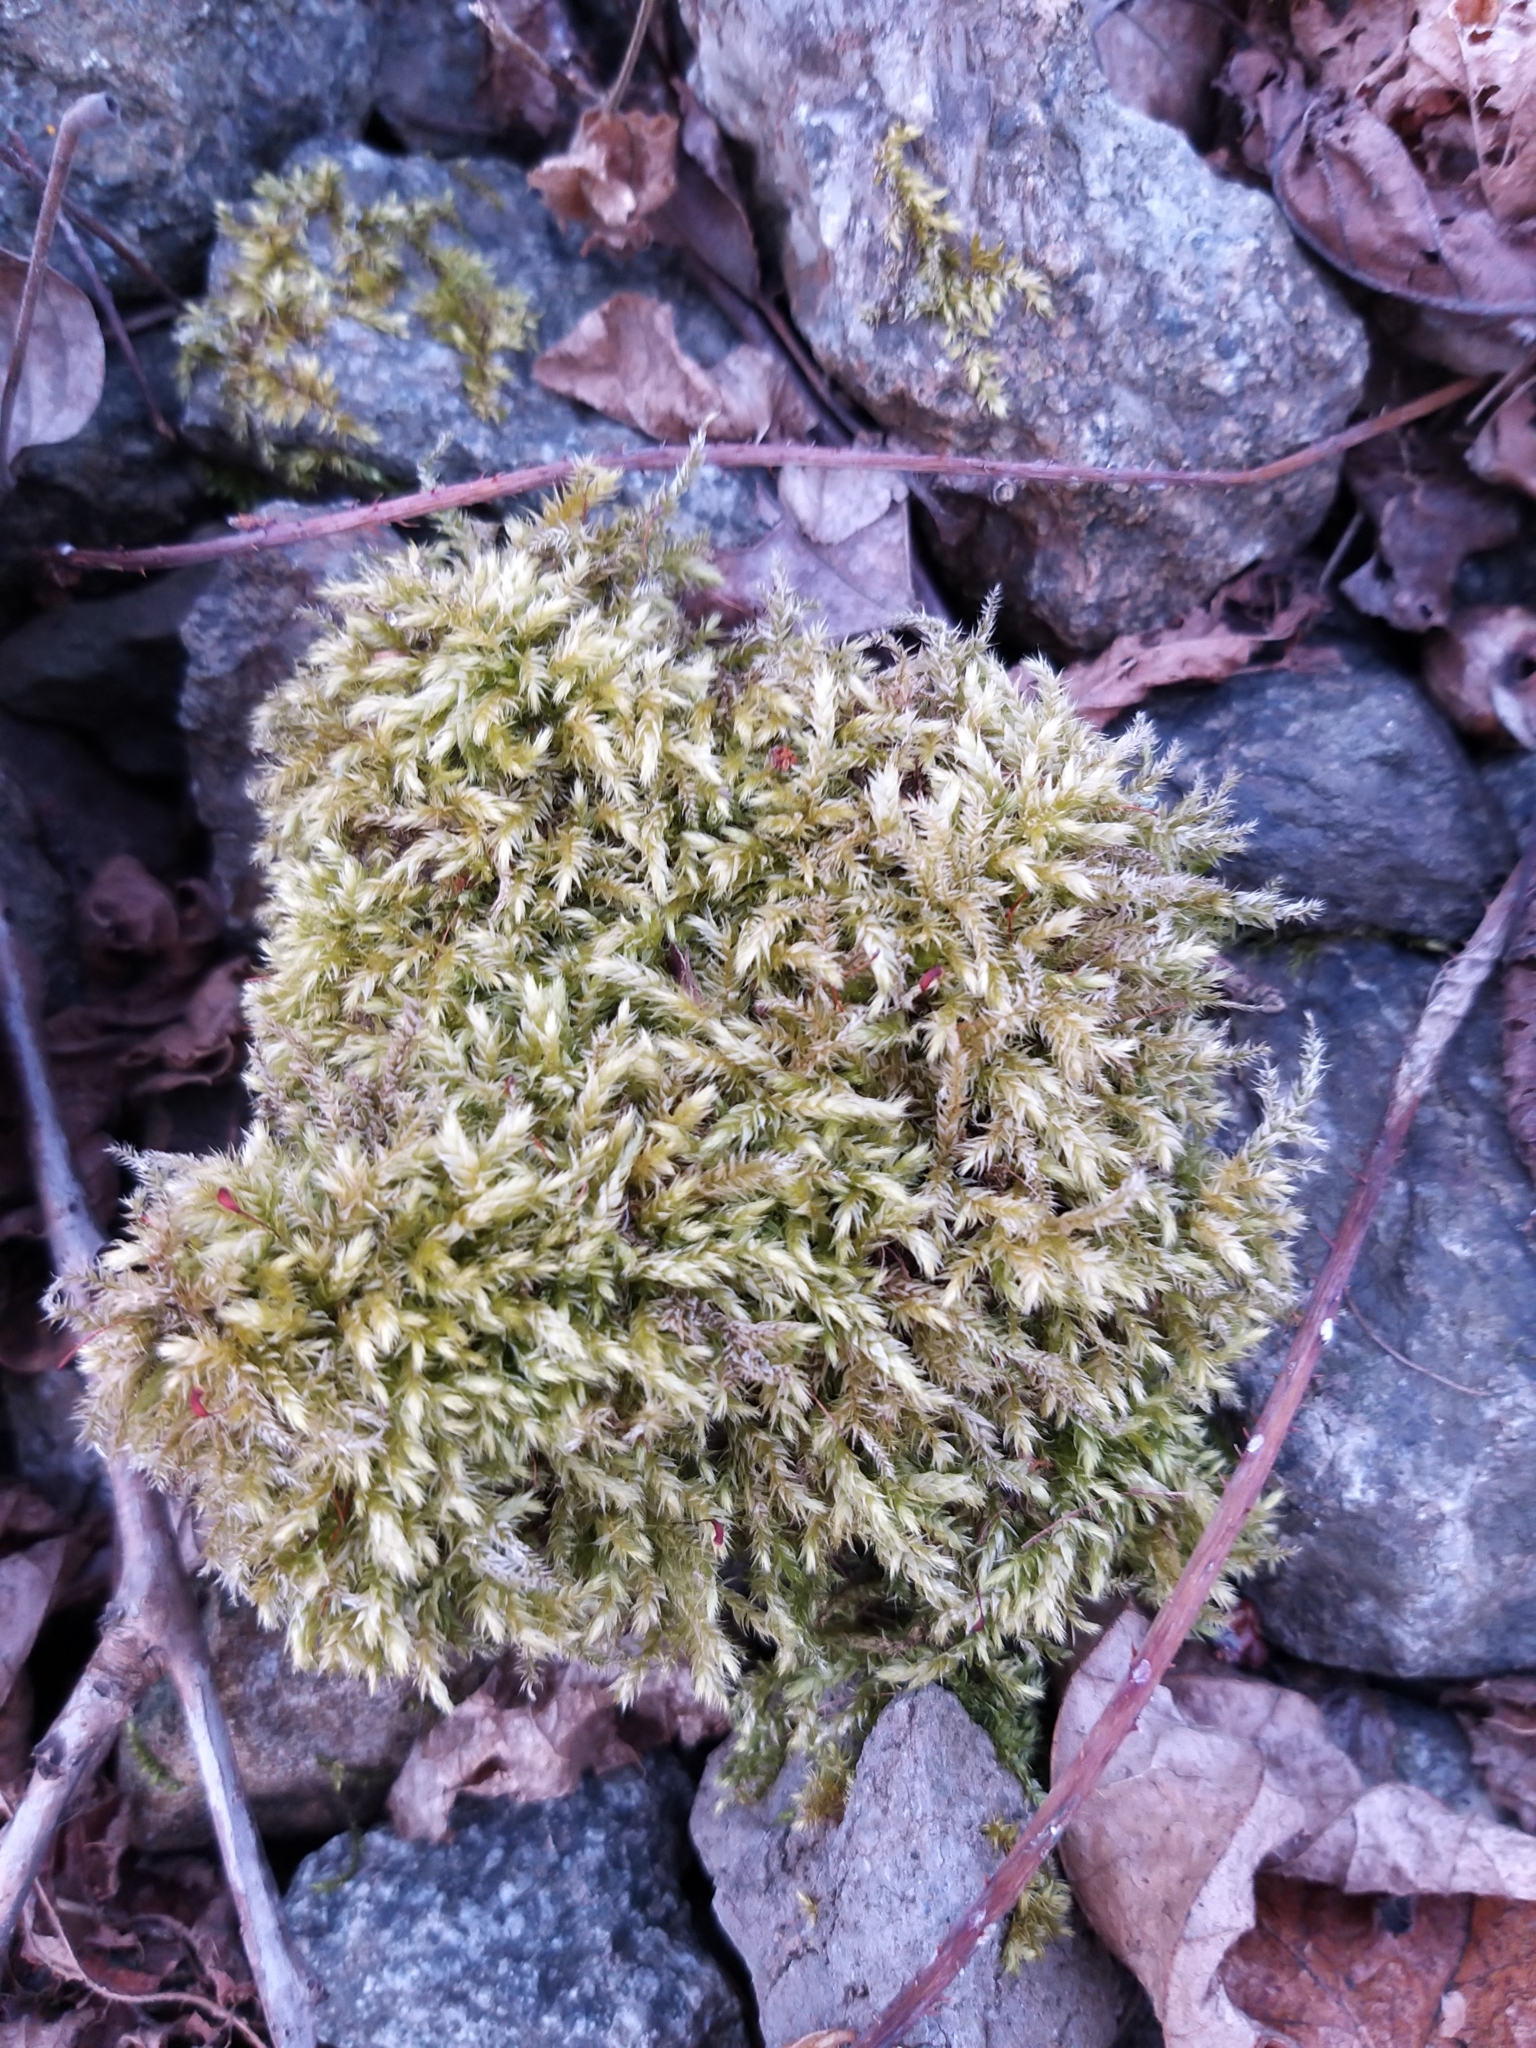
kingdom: Plantae
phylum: Bryophyta
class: Bryopsida
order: Hypnales
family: Brachytheciaceae
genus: Brachythecium
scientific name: Brachythecium rutabulum
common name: Rough-stalked feather-moss
